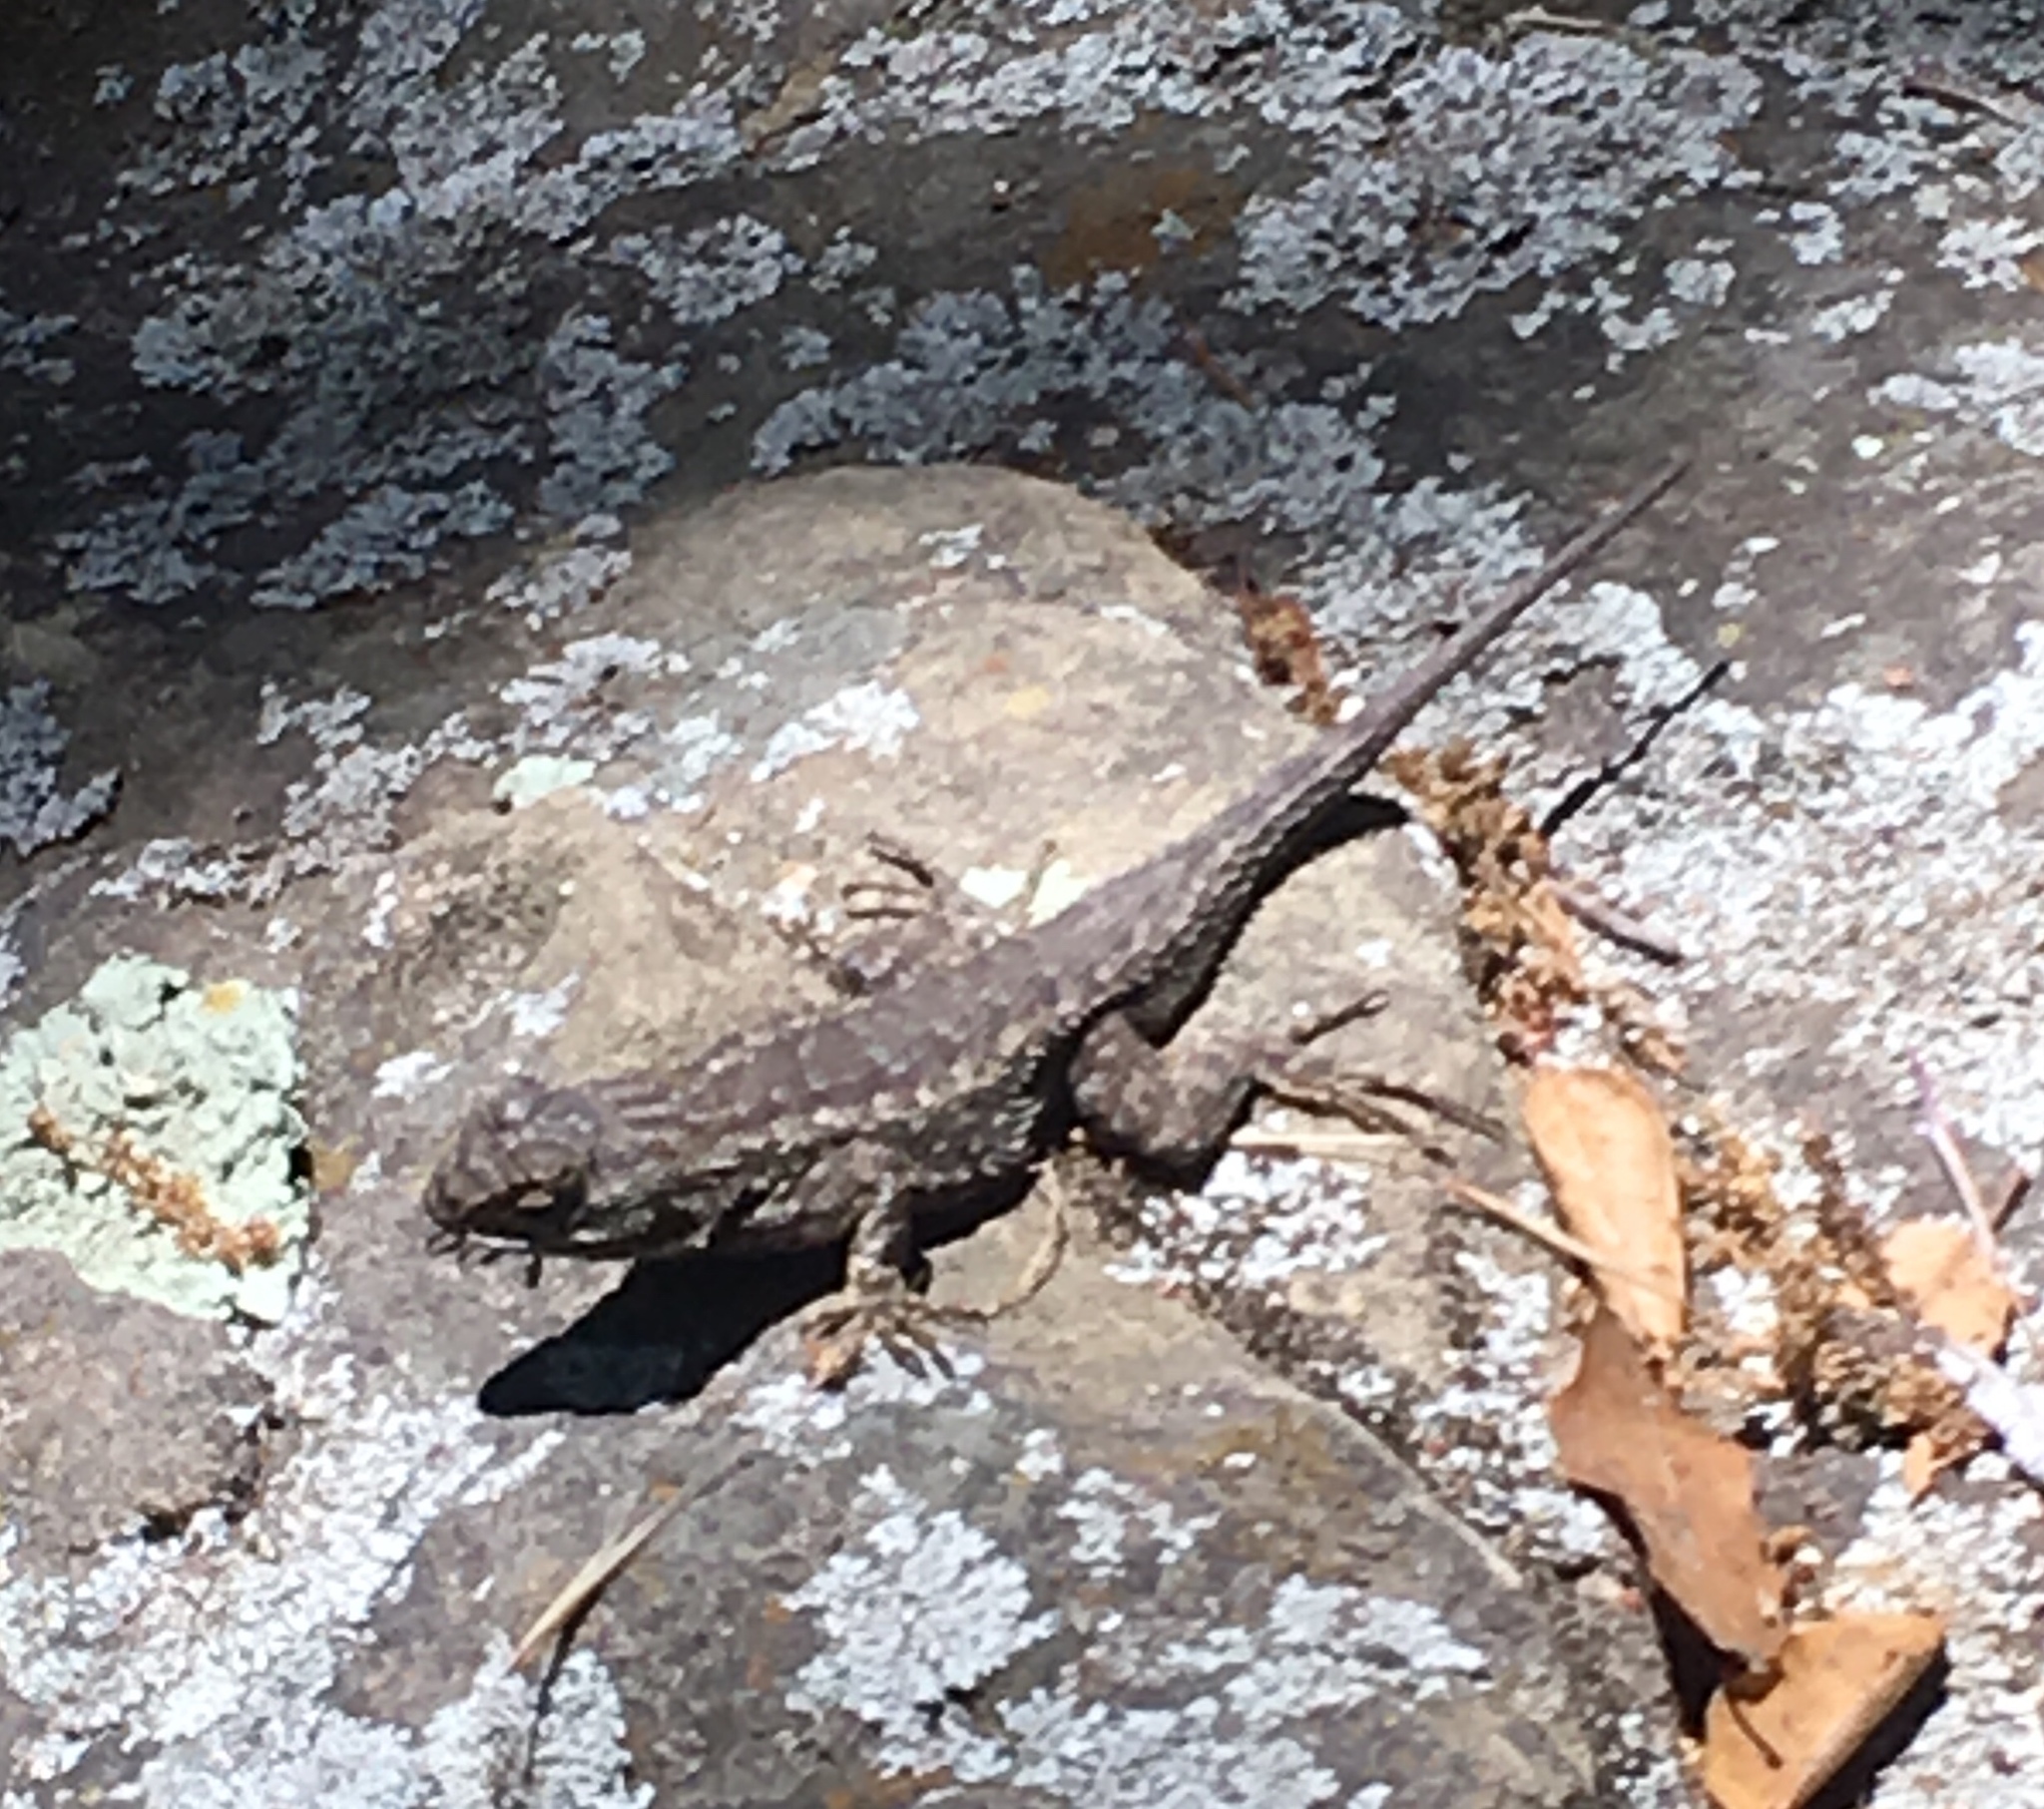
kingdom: Animalia
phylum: Chordata
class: Squamata
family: Phrynosomatidae
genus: Sceloporus
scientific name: Sceloporus occidentalis
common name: Western fence lizard
